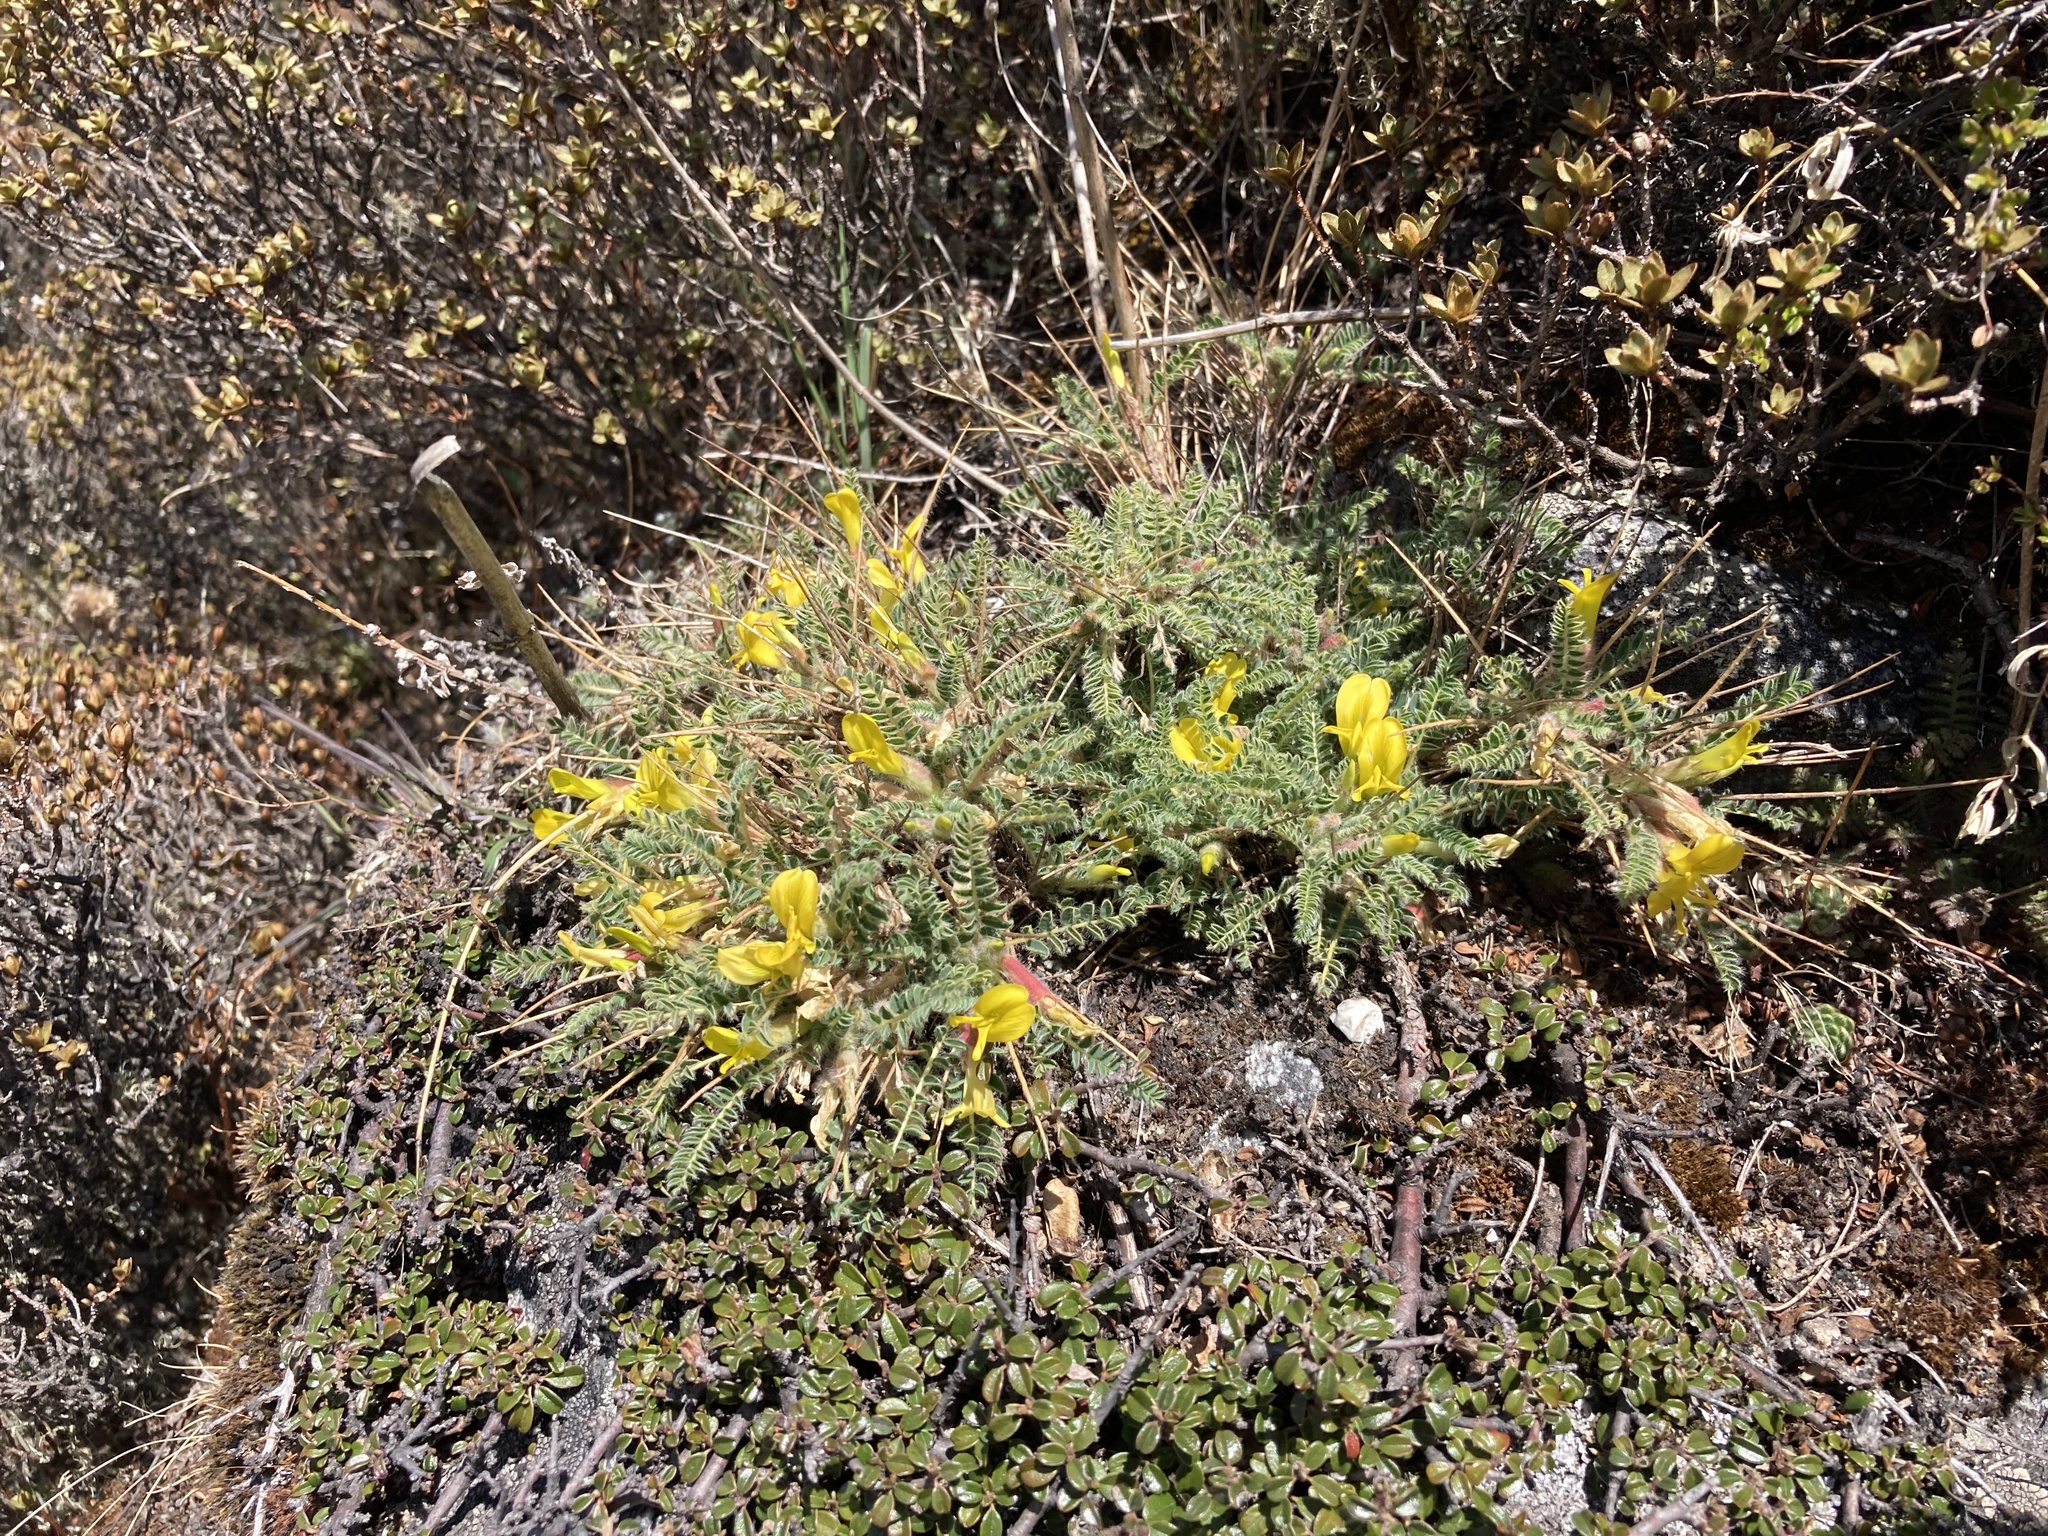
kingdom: Plantae
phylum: Tracheophyta
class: Magnoliopsida
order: Fabales
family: Fabaceae
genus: Astragalus
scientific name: Astragalus rhizanthus
